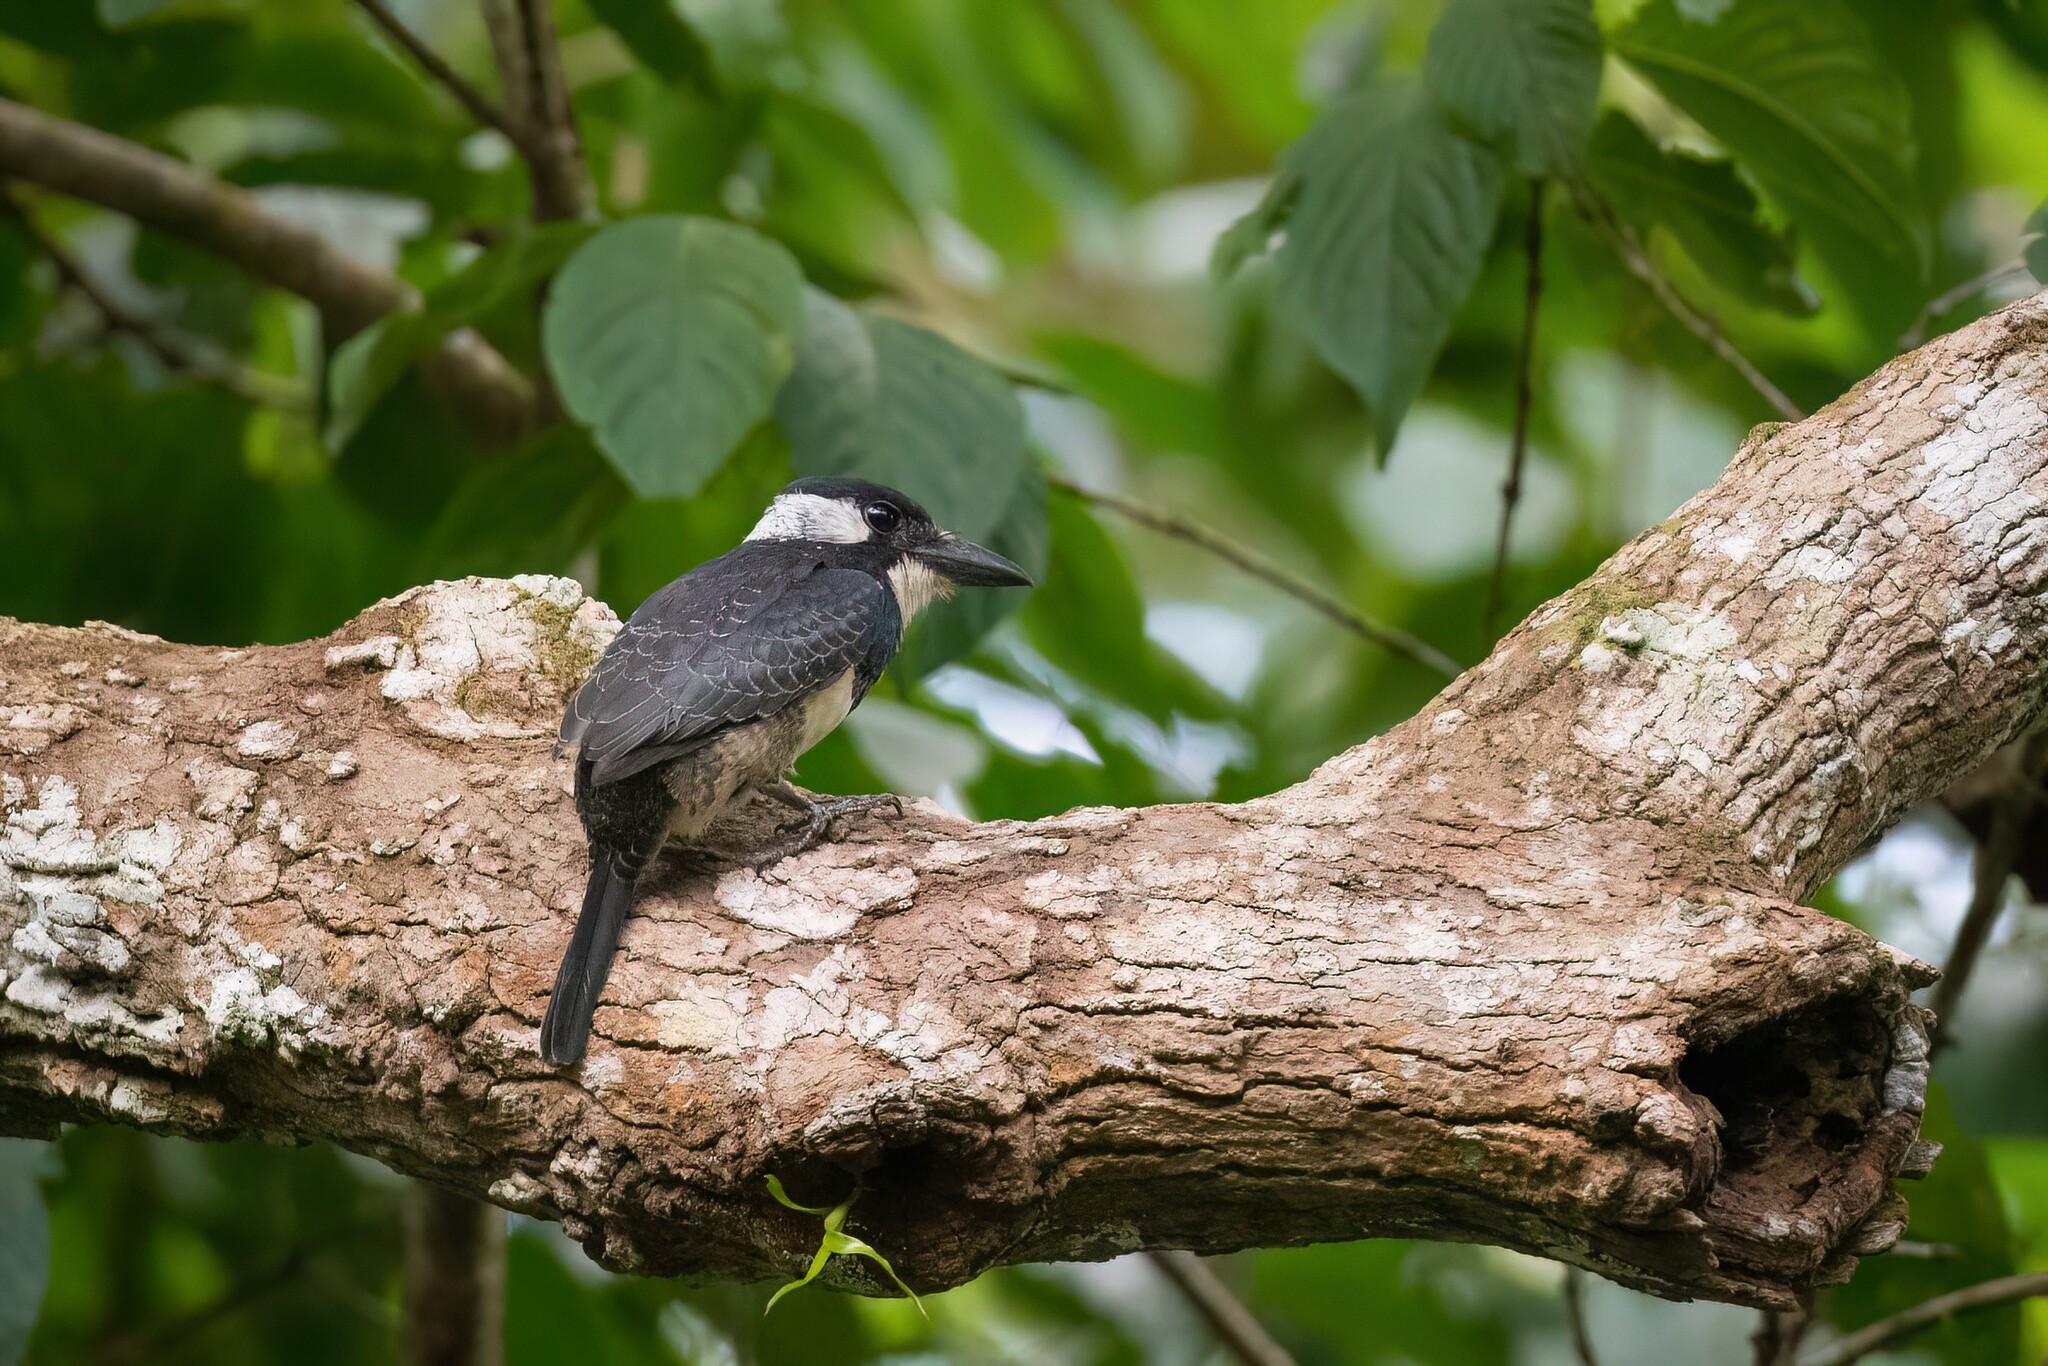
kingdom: Animalia
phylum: Chordata
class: Aves
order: Piciformes
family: Bucconidae
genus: Notharchus
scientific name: Notharchus pectoralis
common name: Black-breasted puffbird
